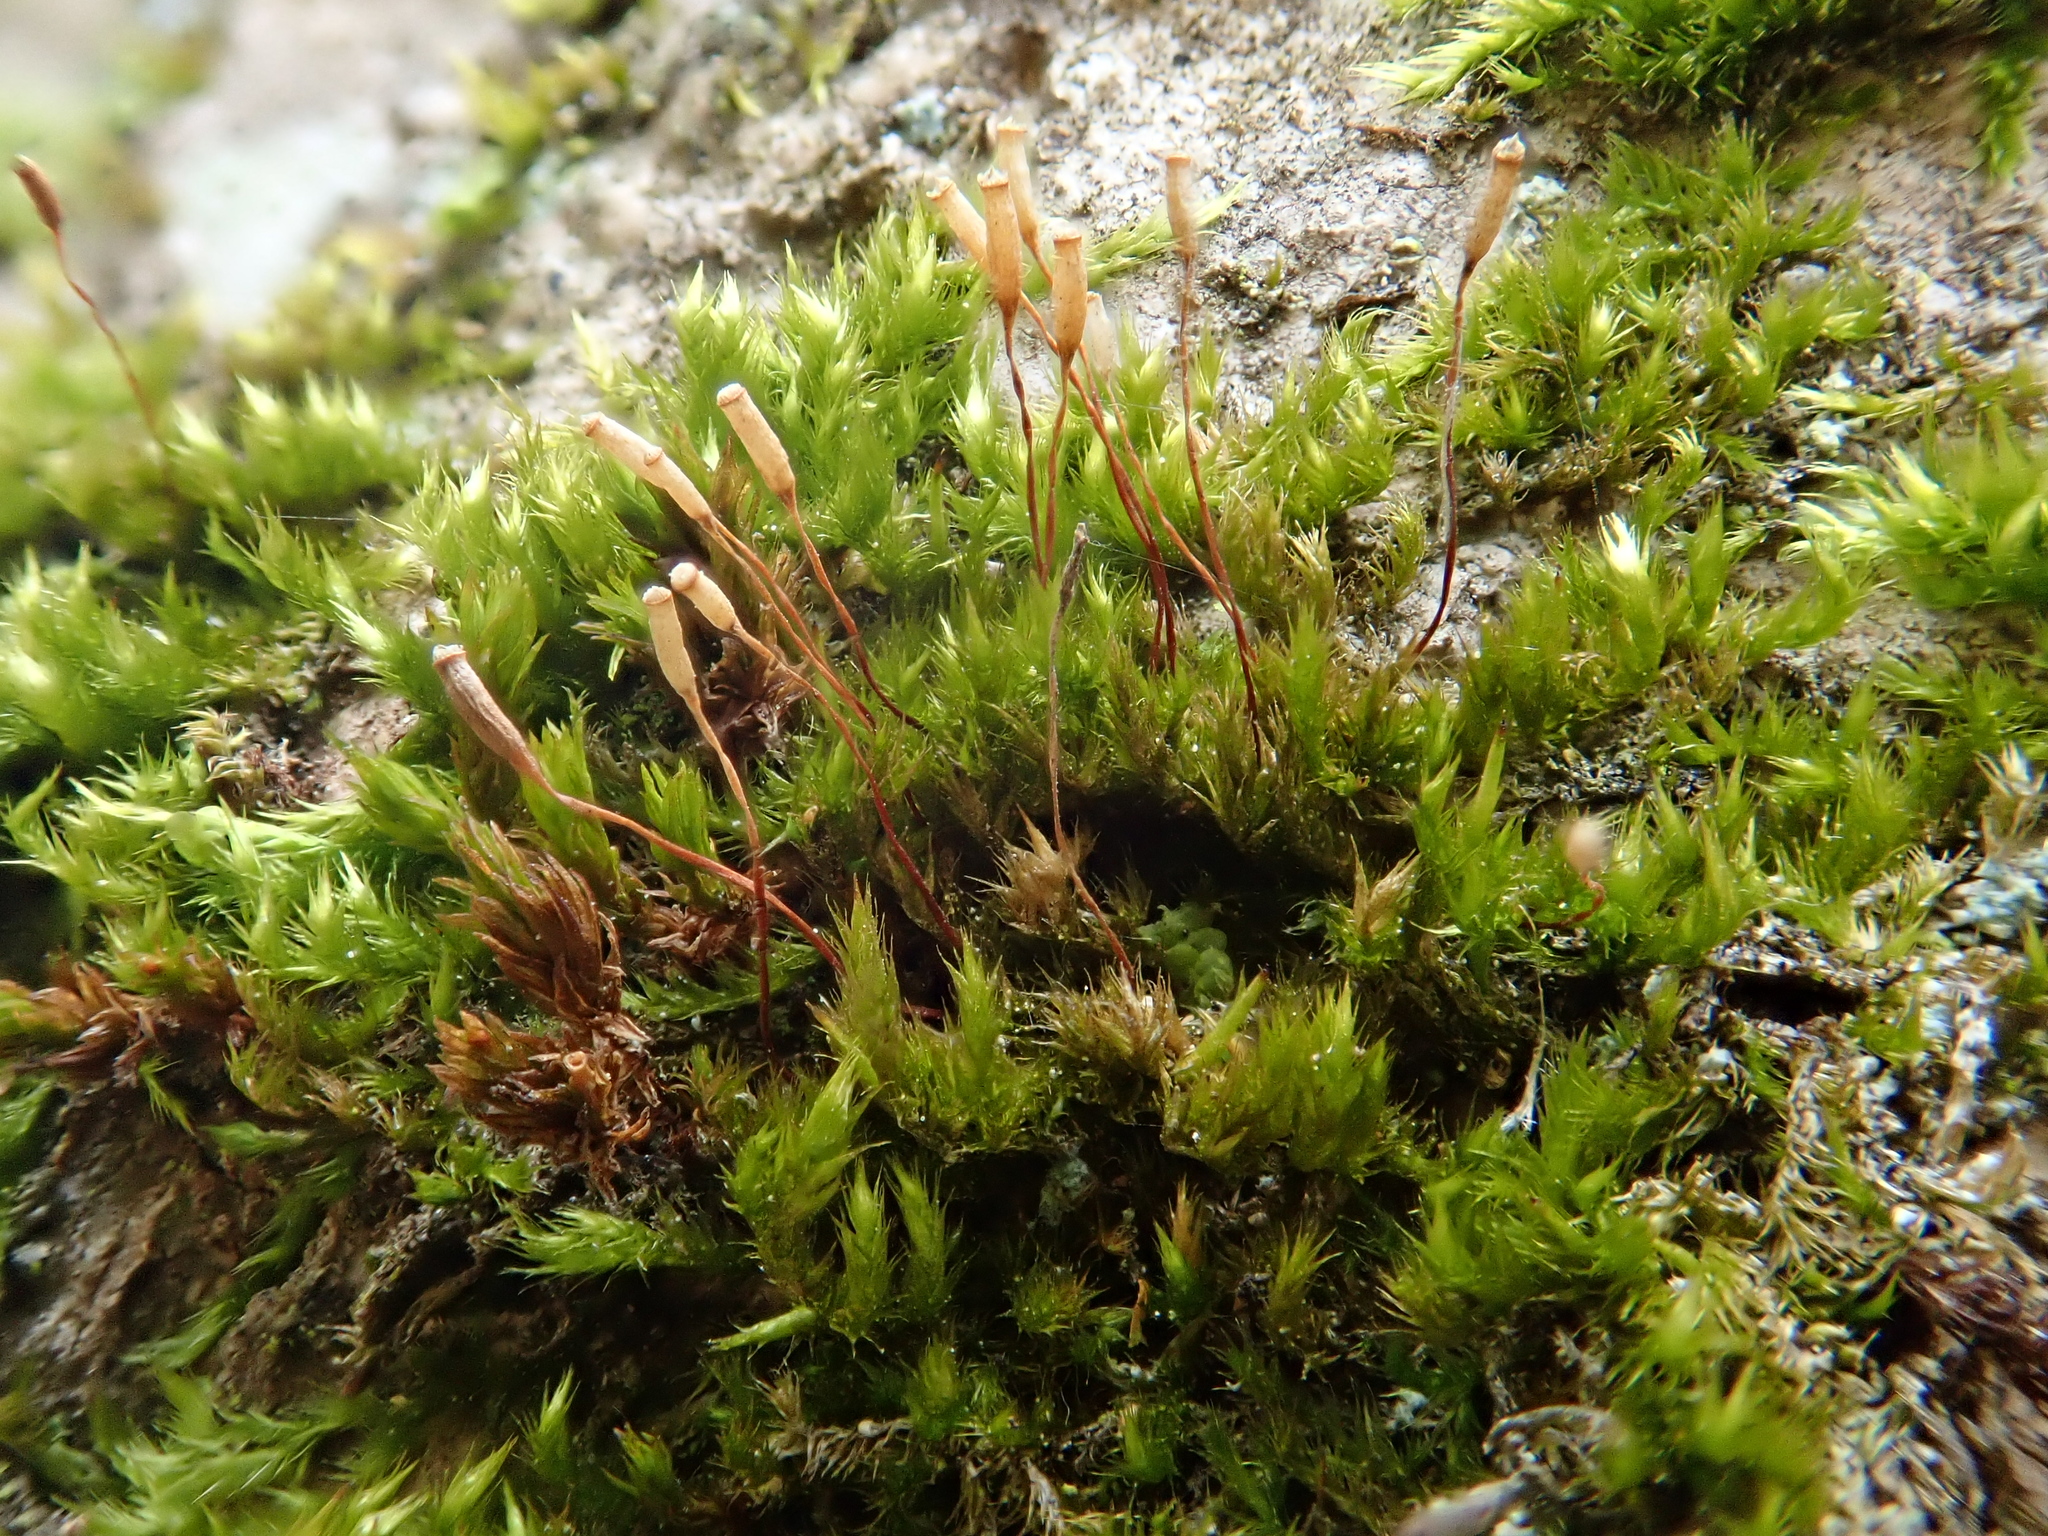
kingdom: Plantae
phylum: Bryophyta
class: Bryopsida
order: Hypnales
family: Pylaisiaceae
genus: Pylaisia
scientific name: Pylaisia polyantha
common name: Many-flowered leskea
